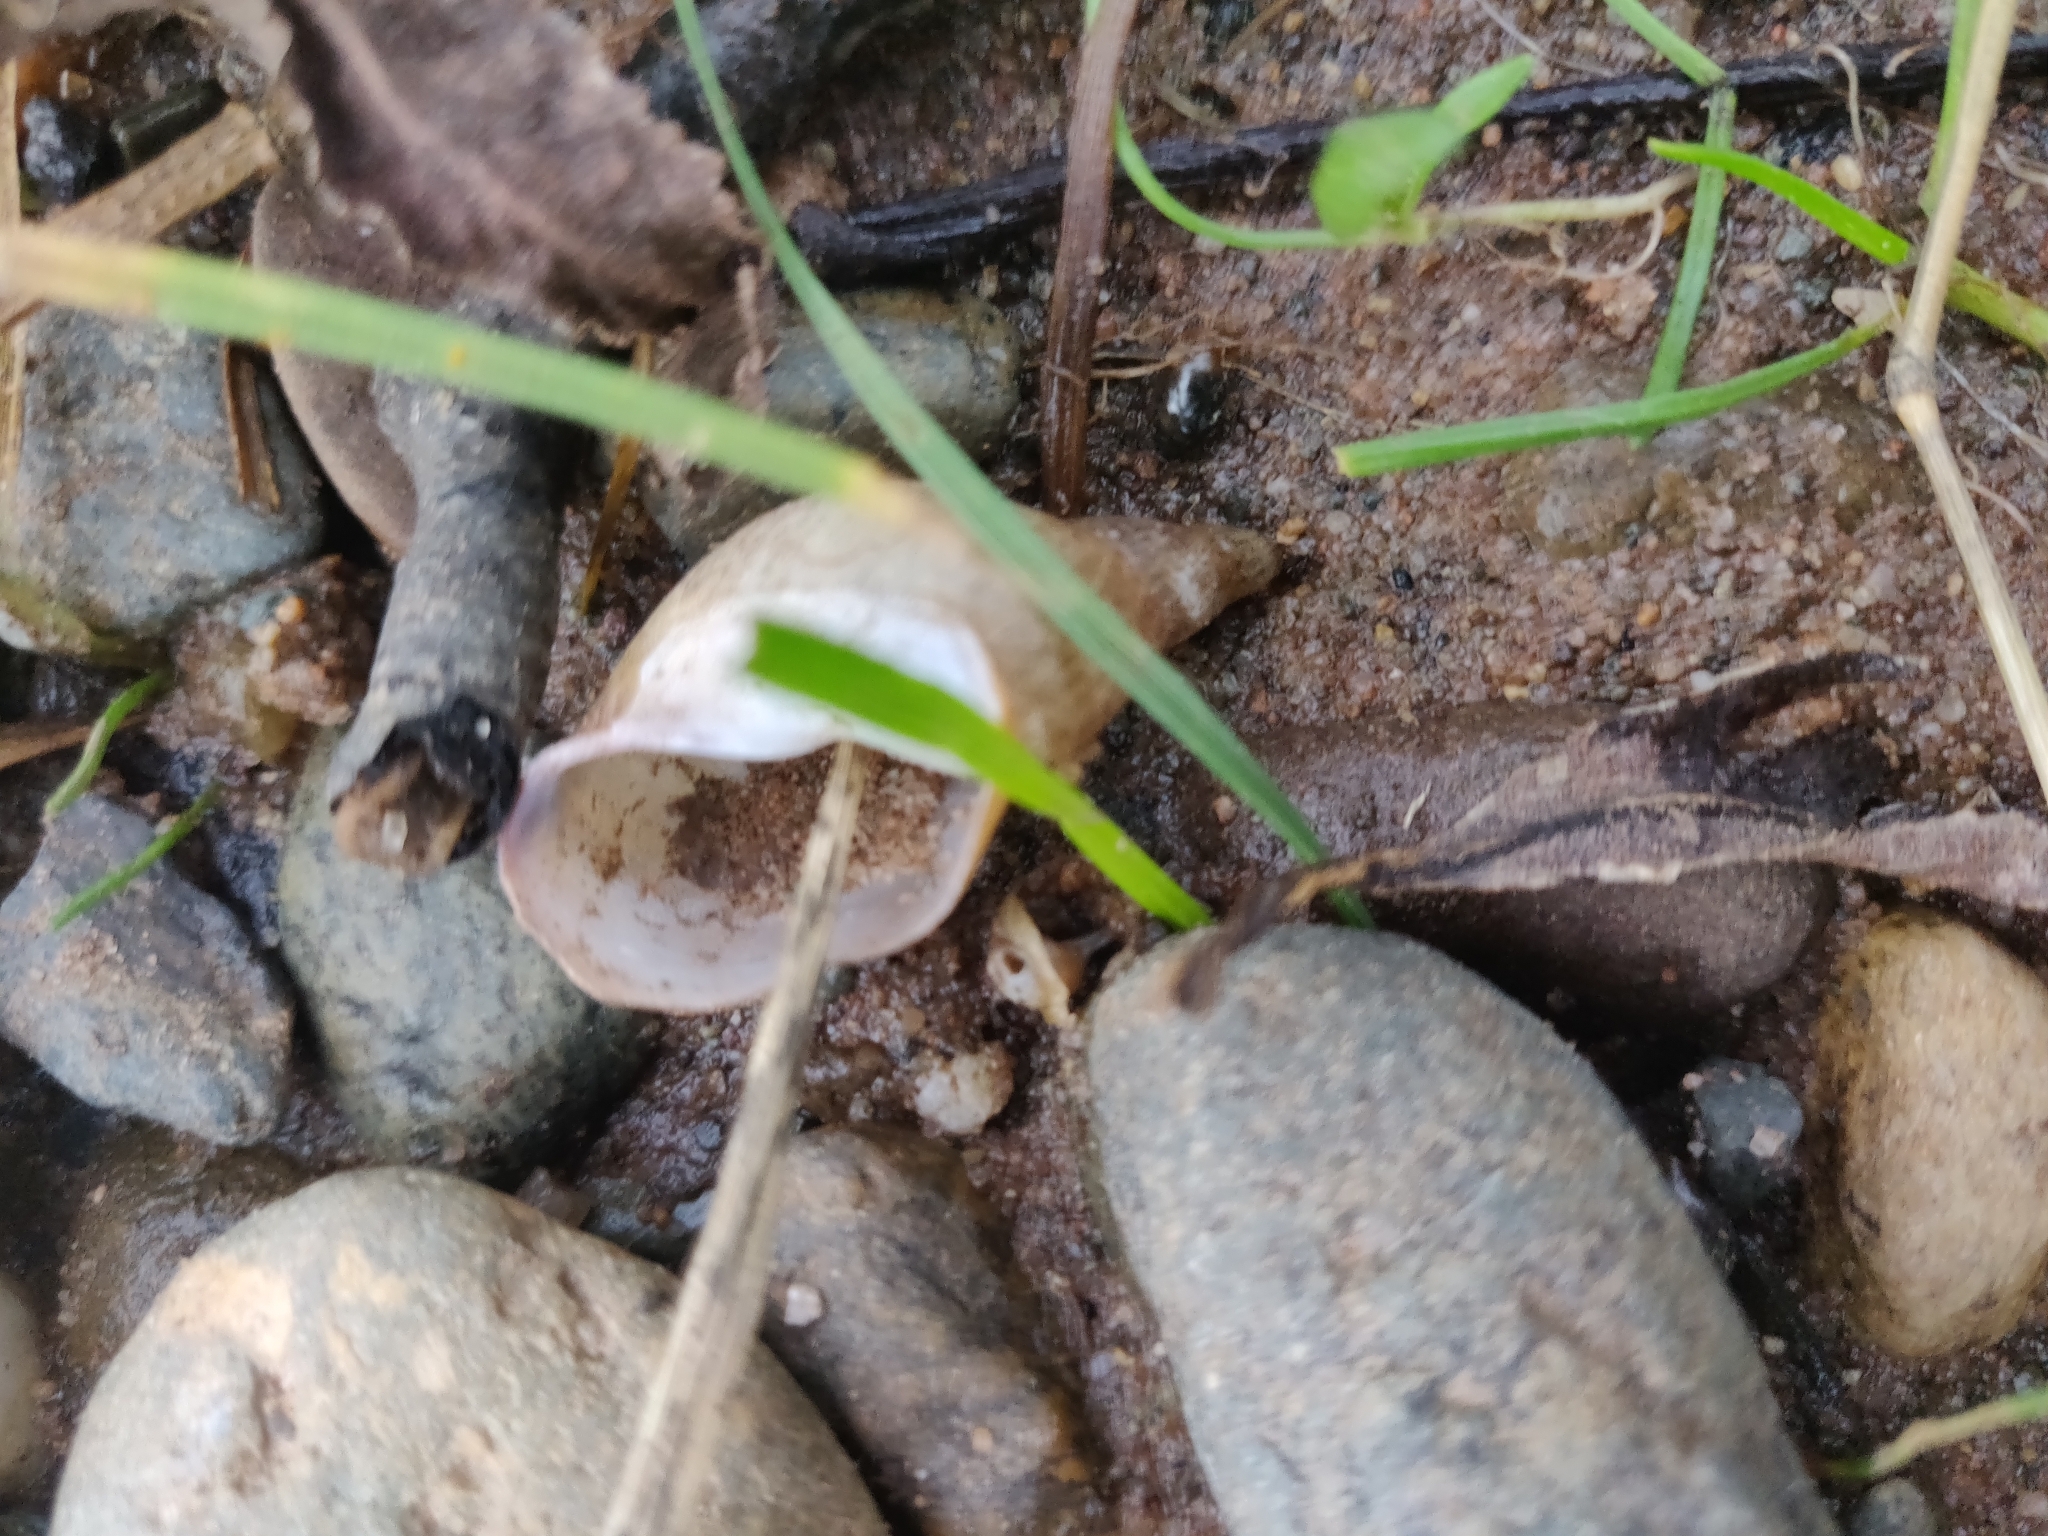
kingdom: Animalia
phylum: Mollusca
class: Gastropoda
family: Lymnaeidae
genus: Lymnaea
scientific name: Lymnaea stagnalis
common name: Great pond snail
